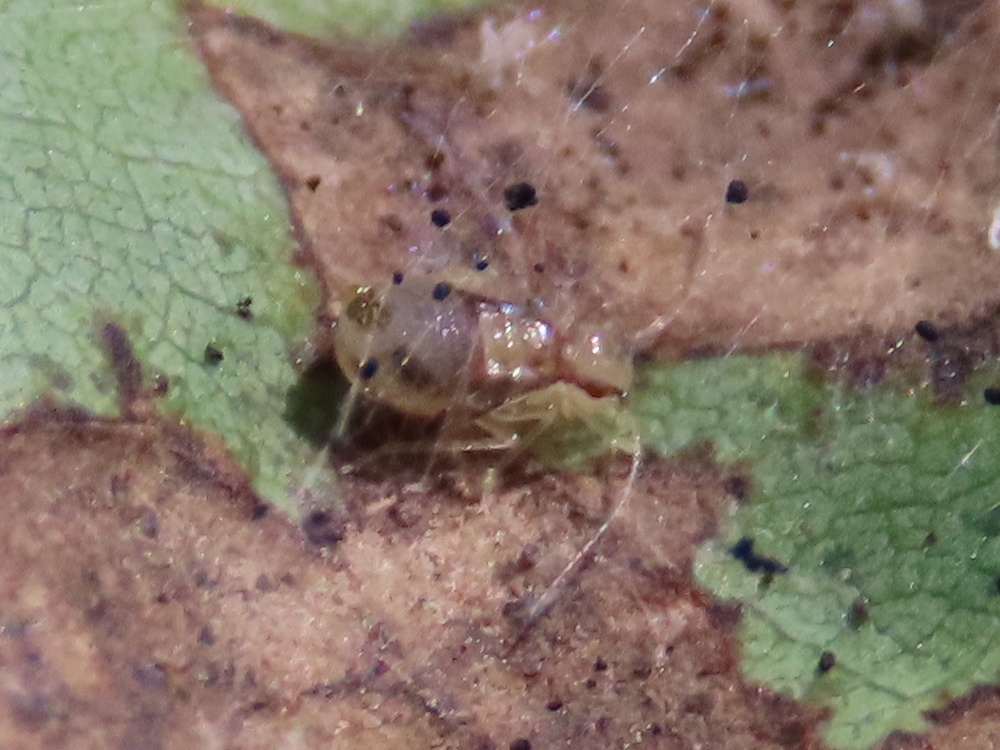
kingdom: Animalia
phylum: Arthropoda
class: Insecta
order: Psocodea
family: Amphipsocidae
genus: Polypsocus
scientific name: Polypsocus corruptus
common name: Corrupt barklouse
